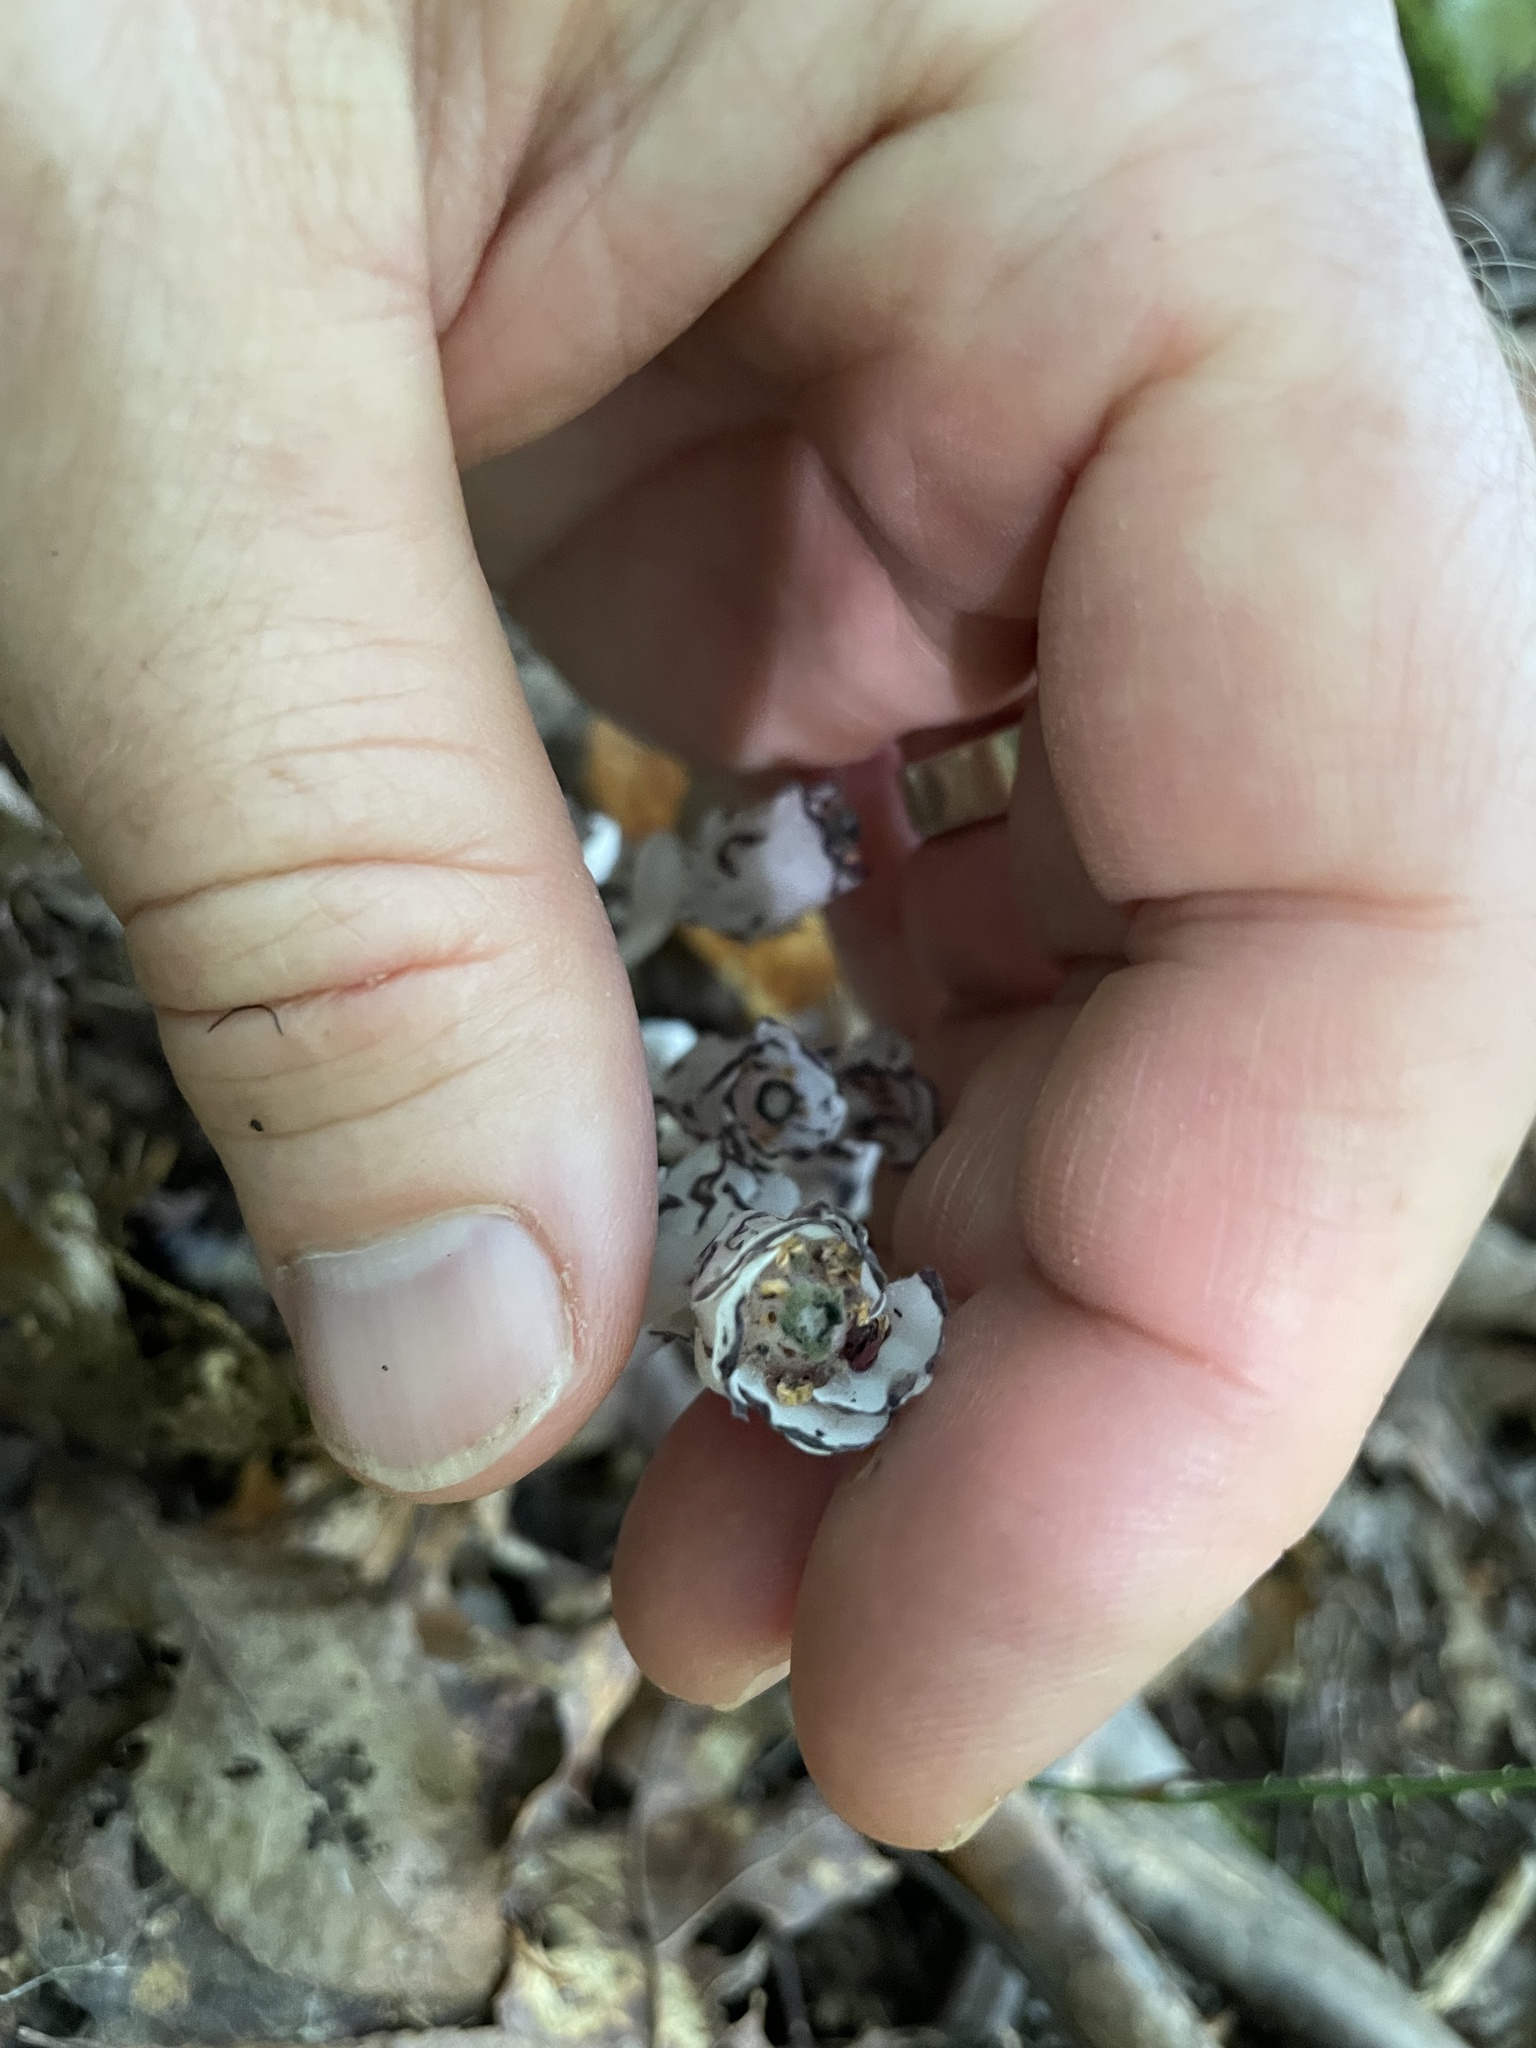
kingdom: Plantae
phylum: Tracheophyta
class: Magnoliopsida
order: Ericales
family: Ericaceae
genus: Monotropa
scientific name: Monotropa uniflora
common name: Convulsion root
